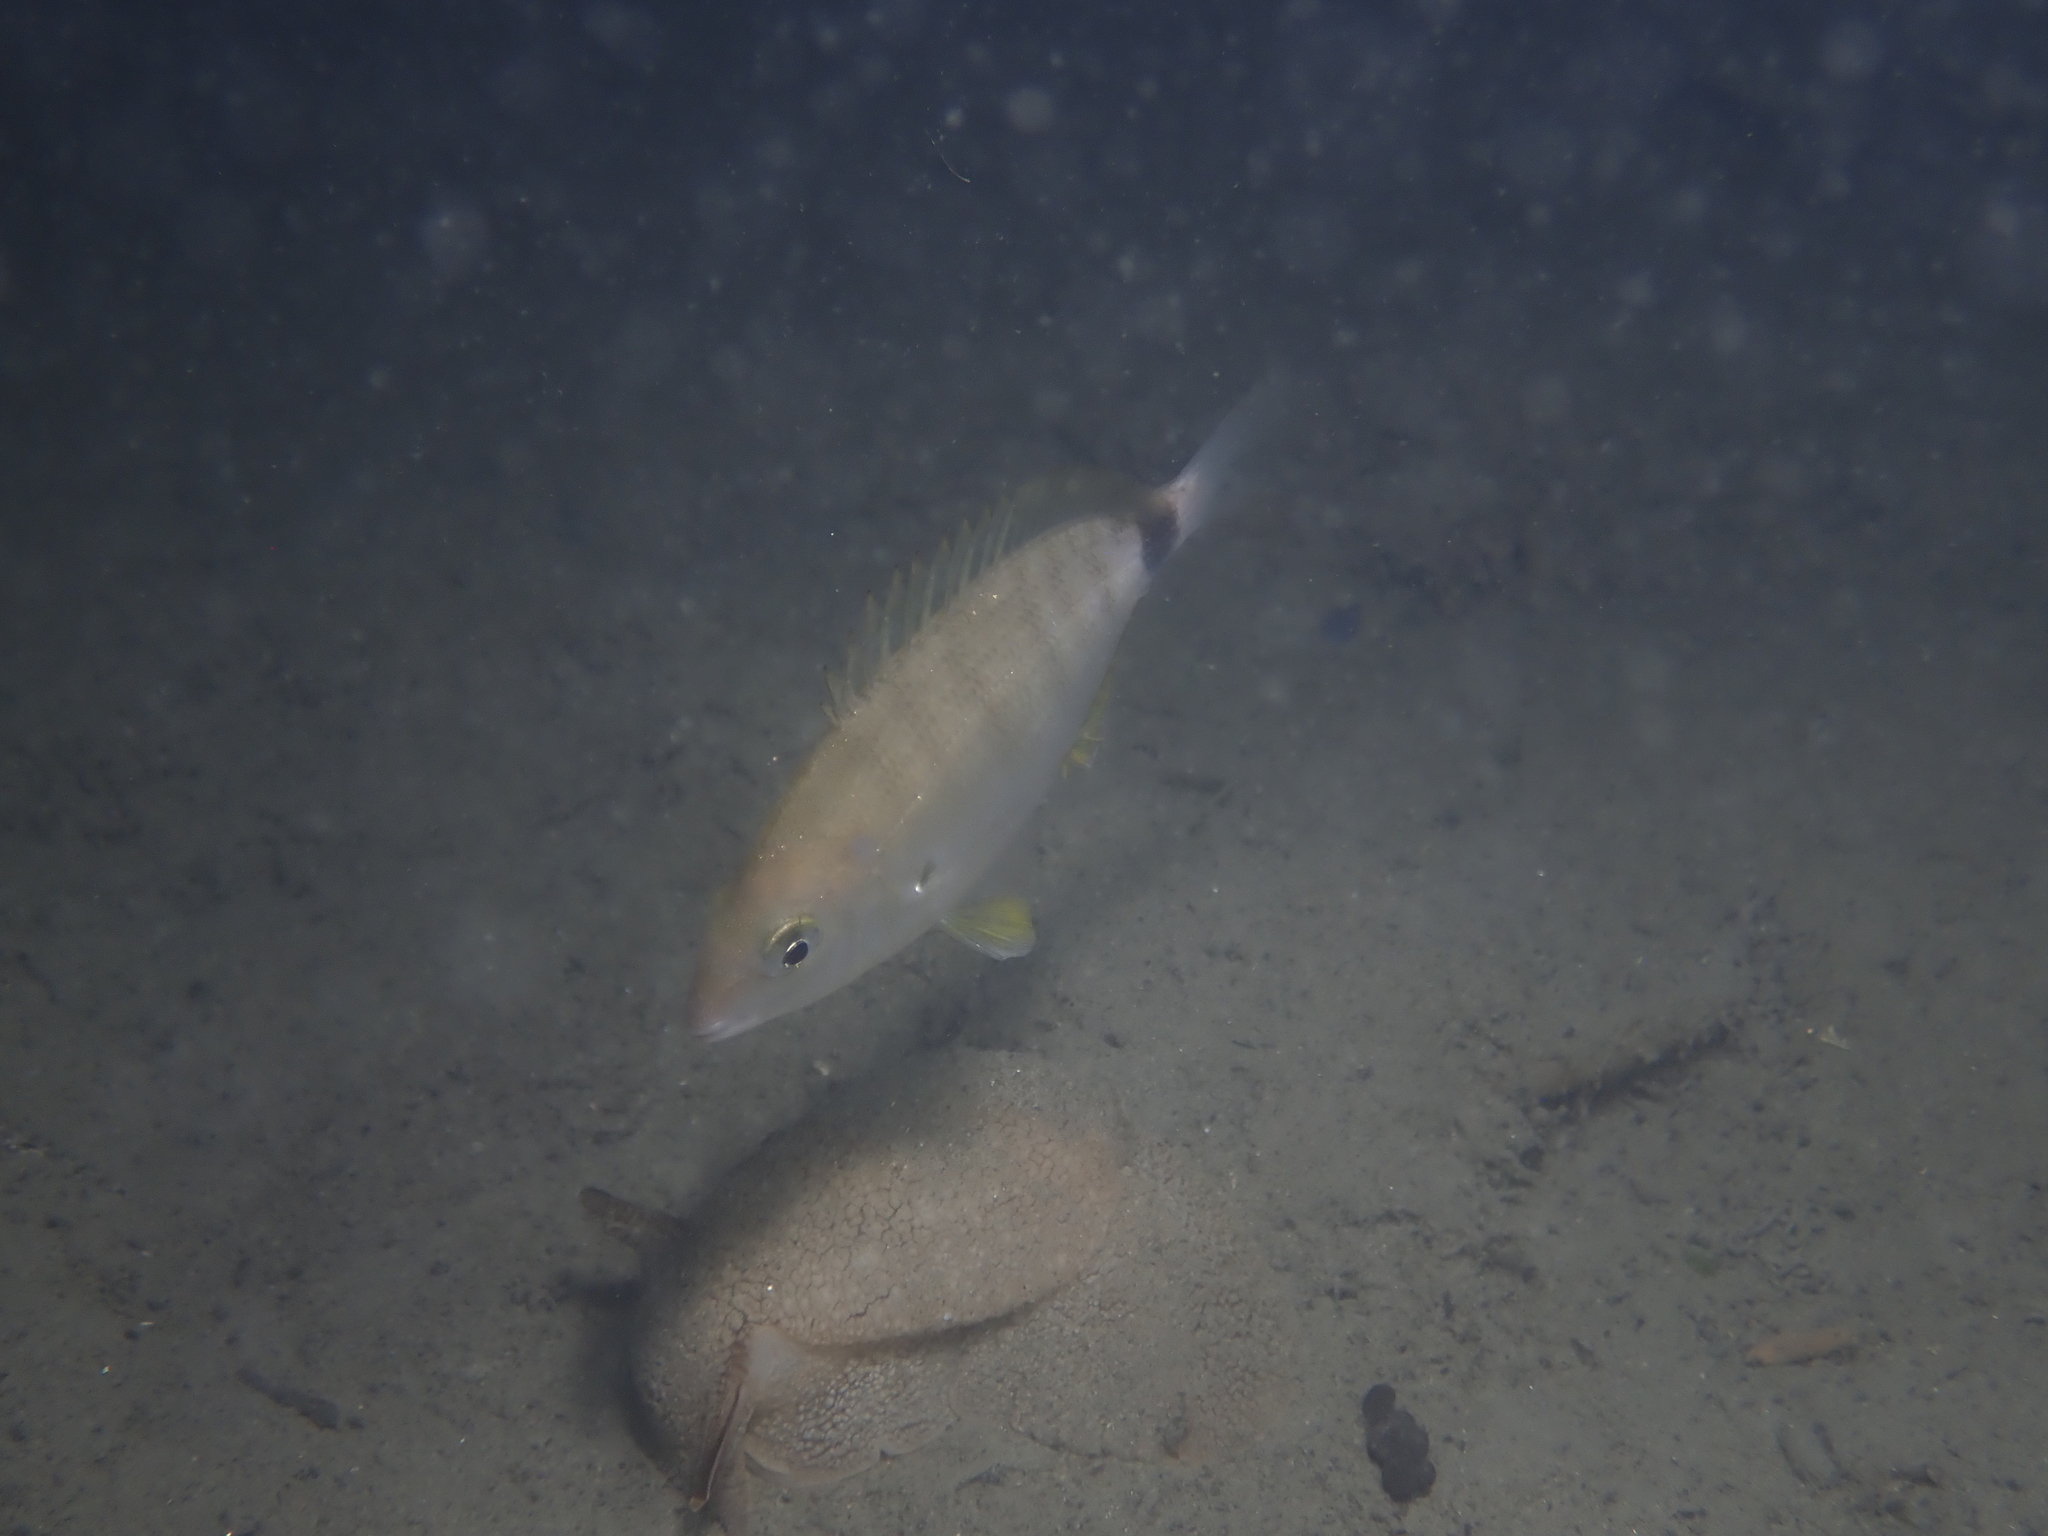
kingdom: Animalia
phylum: Chordata
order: Perciformes
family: Sparidae
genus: Diplodus
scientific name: Diplodus annularis
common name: Annular seabream
